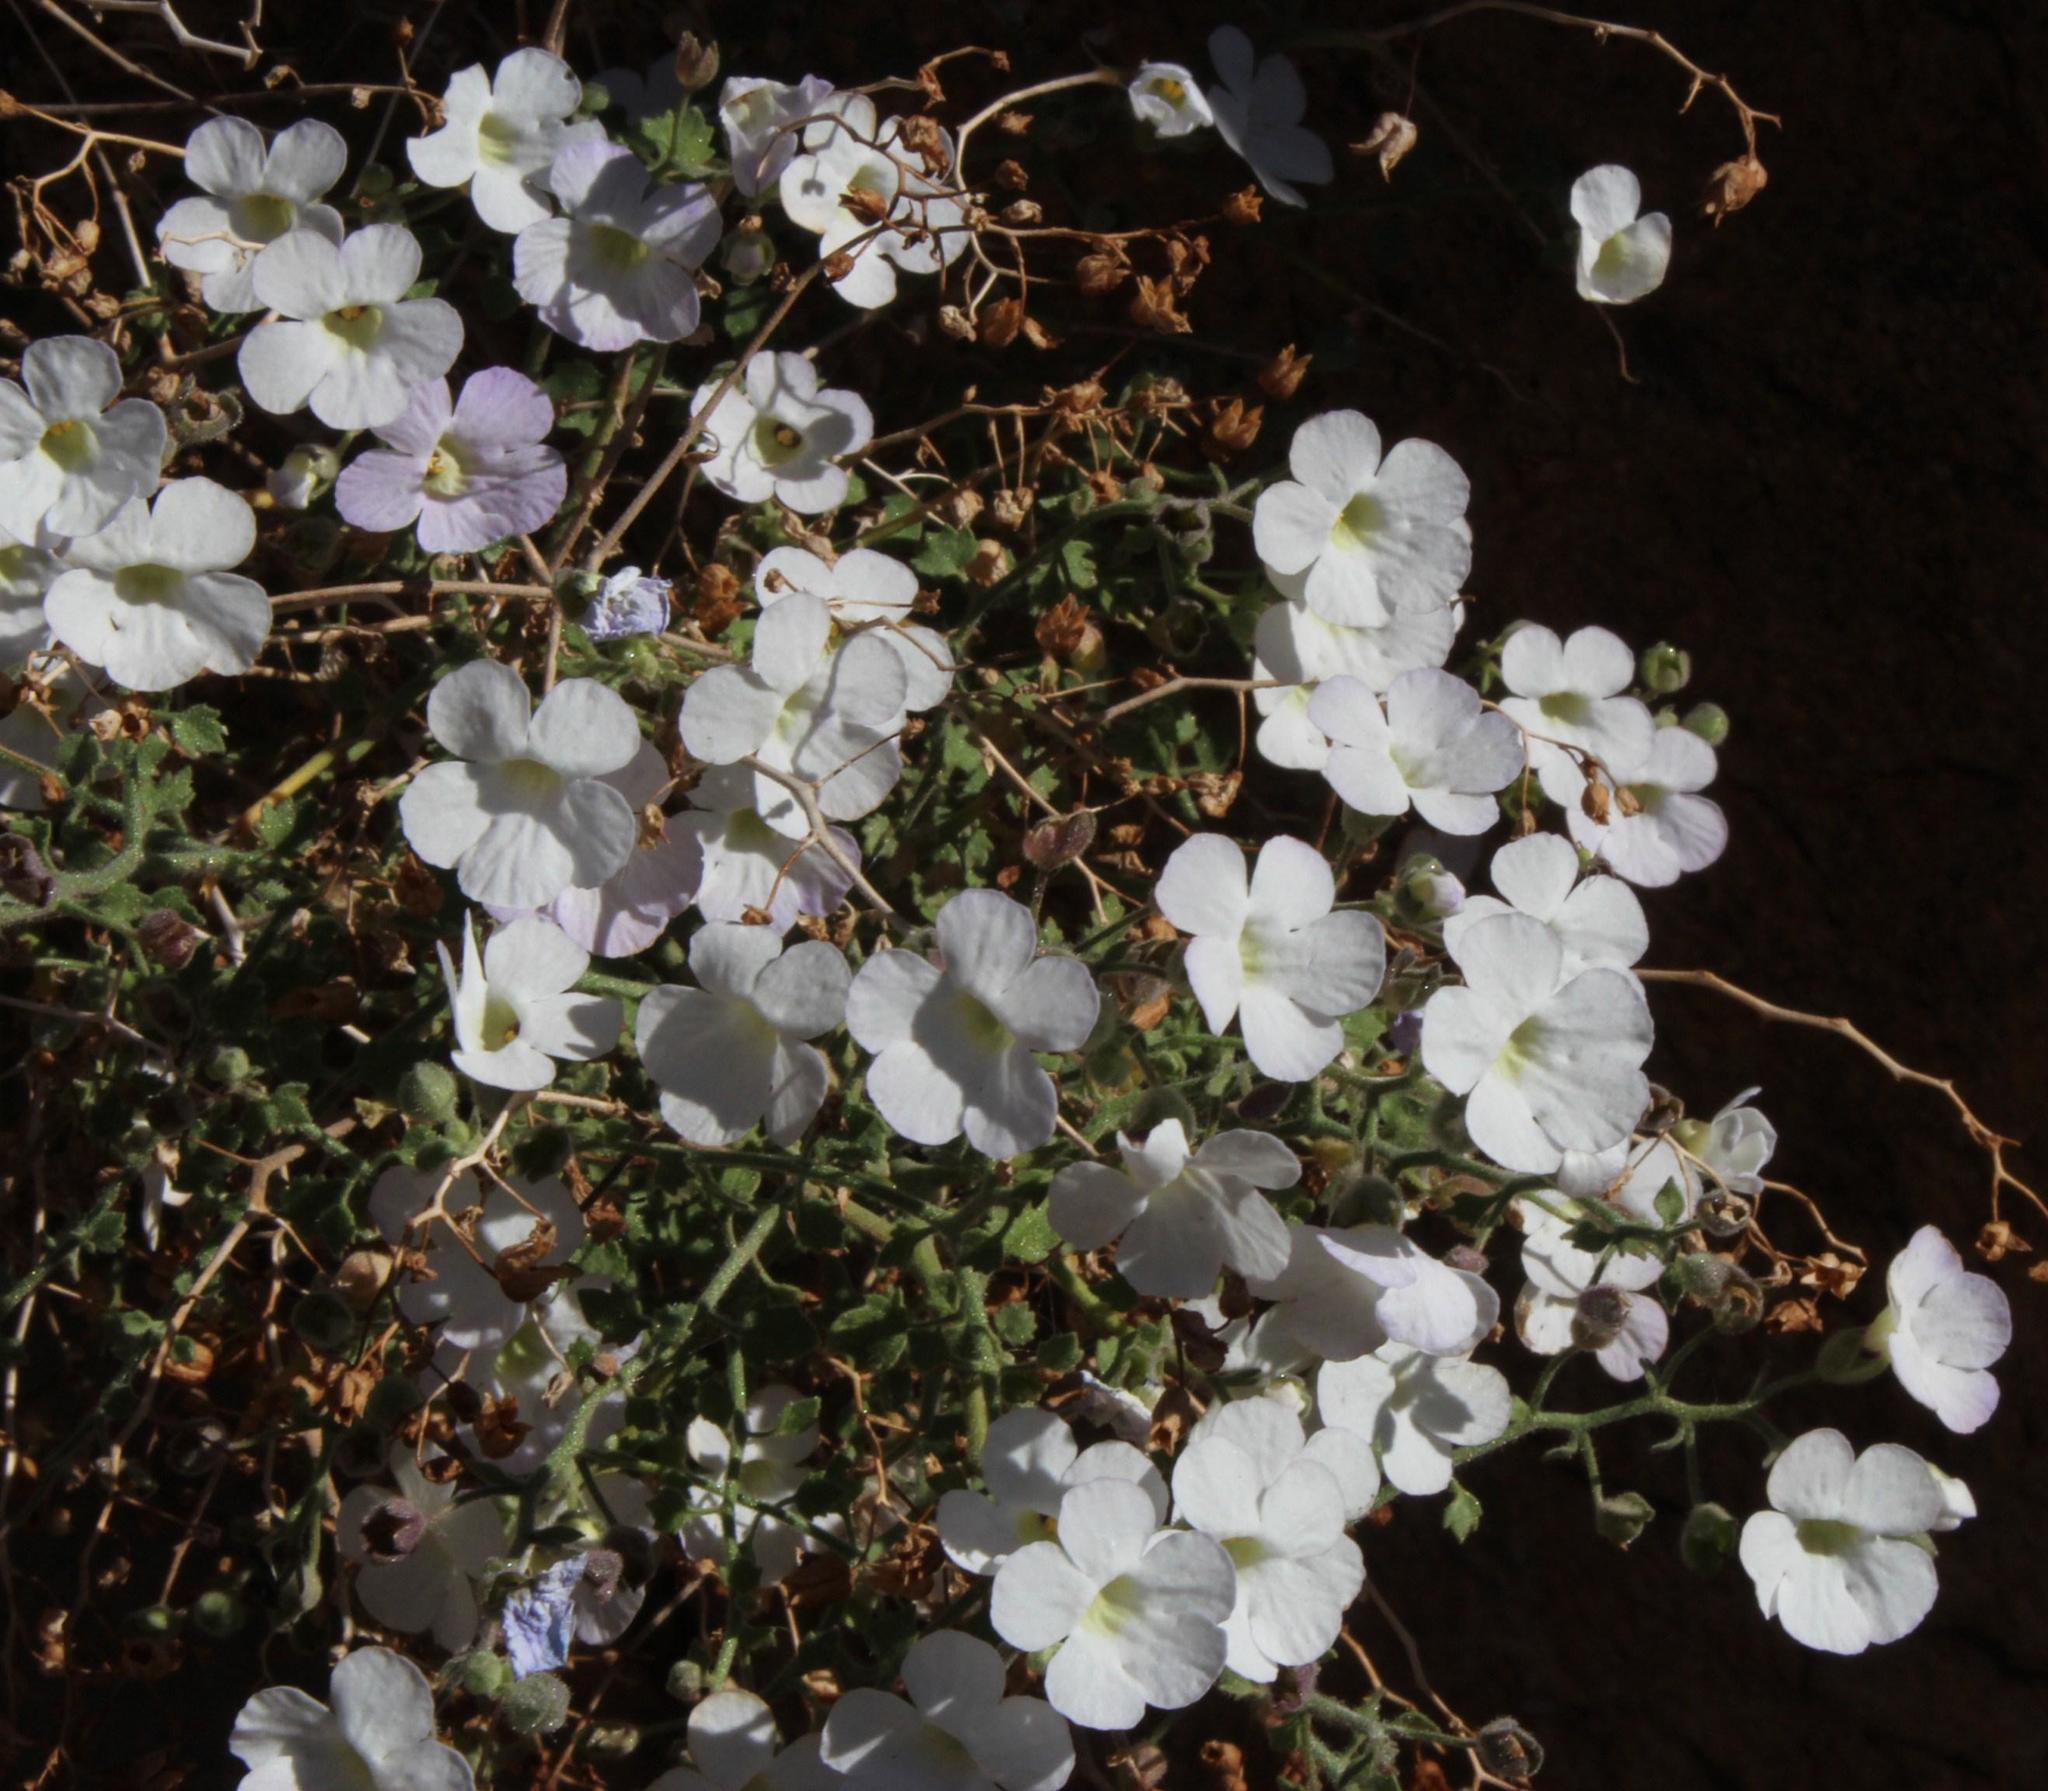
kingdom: Plantae
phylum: Tracheophyta
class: Magnoliopsida
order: Lamiales
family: Scrophulariaceae
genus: Jamesbrittenia
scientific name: Jamesbrittenia ramosissima
